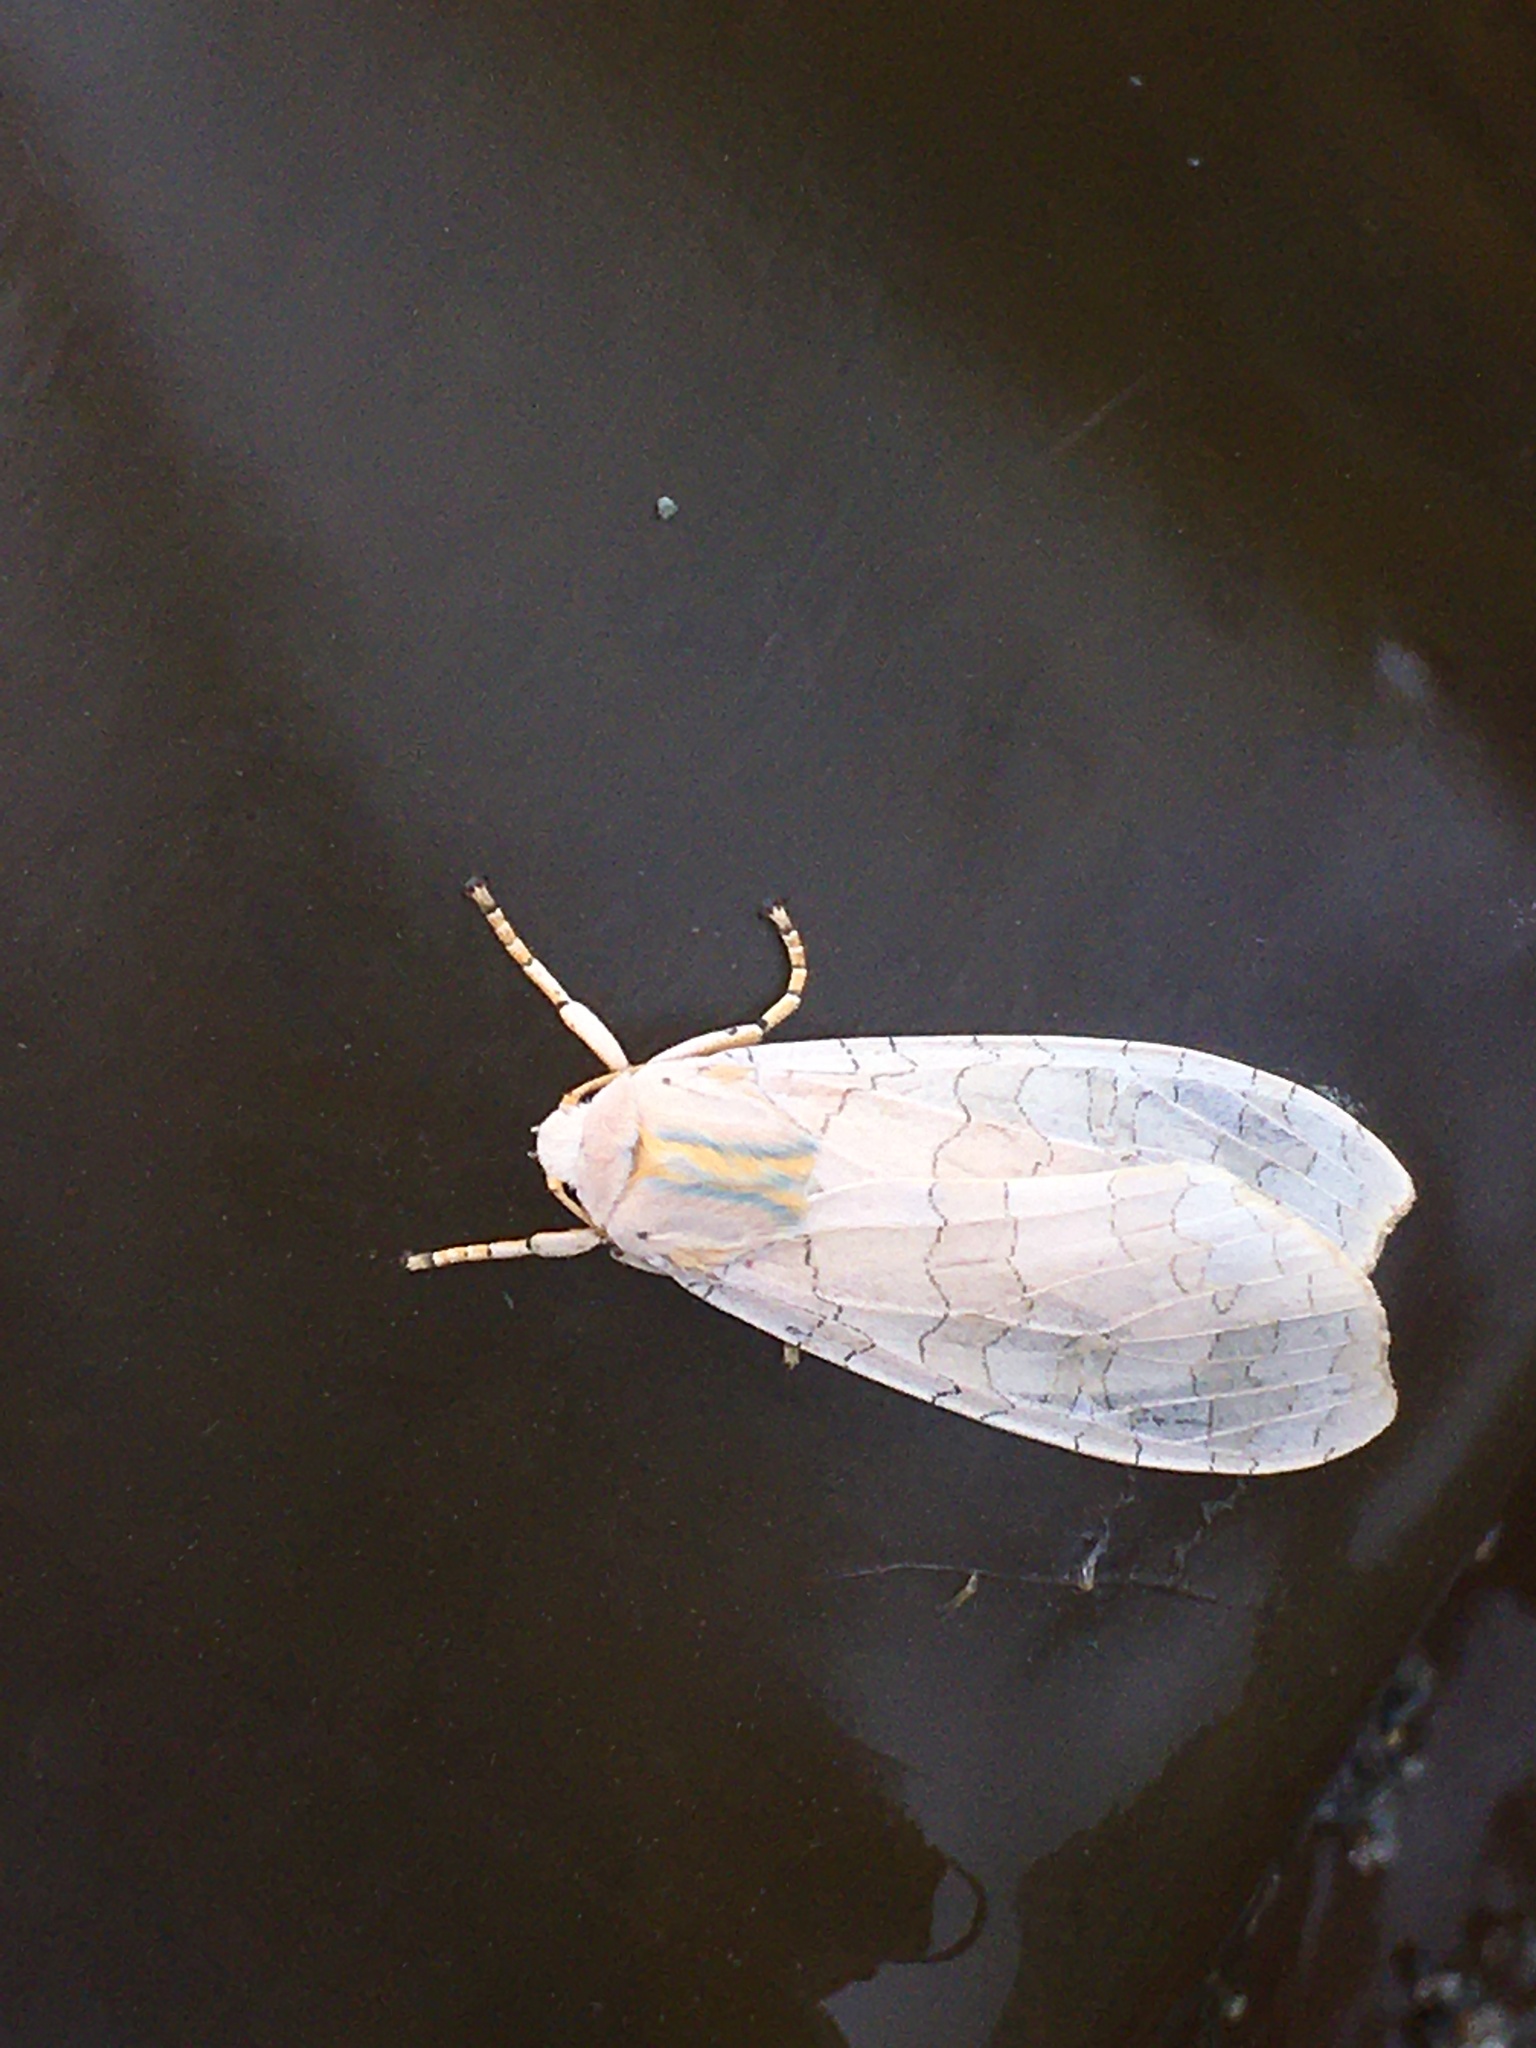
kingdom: Animalia
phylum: Arthropoda
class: Insecta
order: Lepidoptera
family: Erebidae
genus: Halysidota
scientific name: Halysidota
